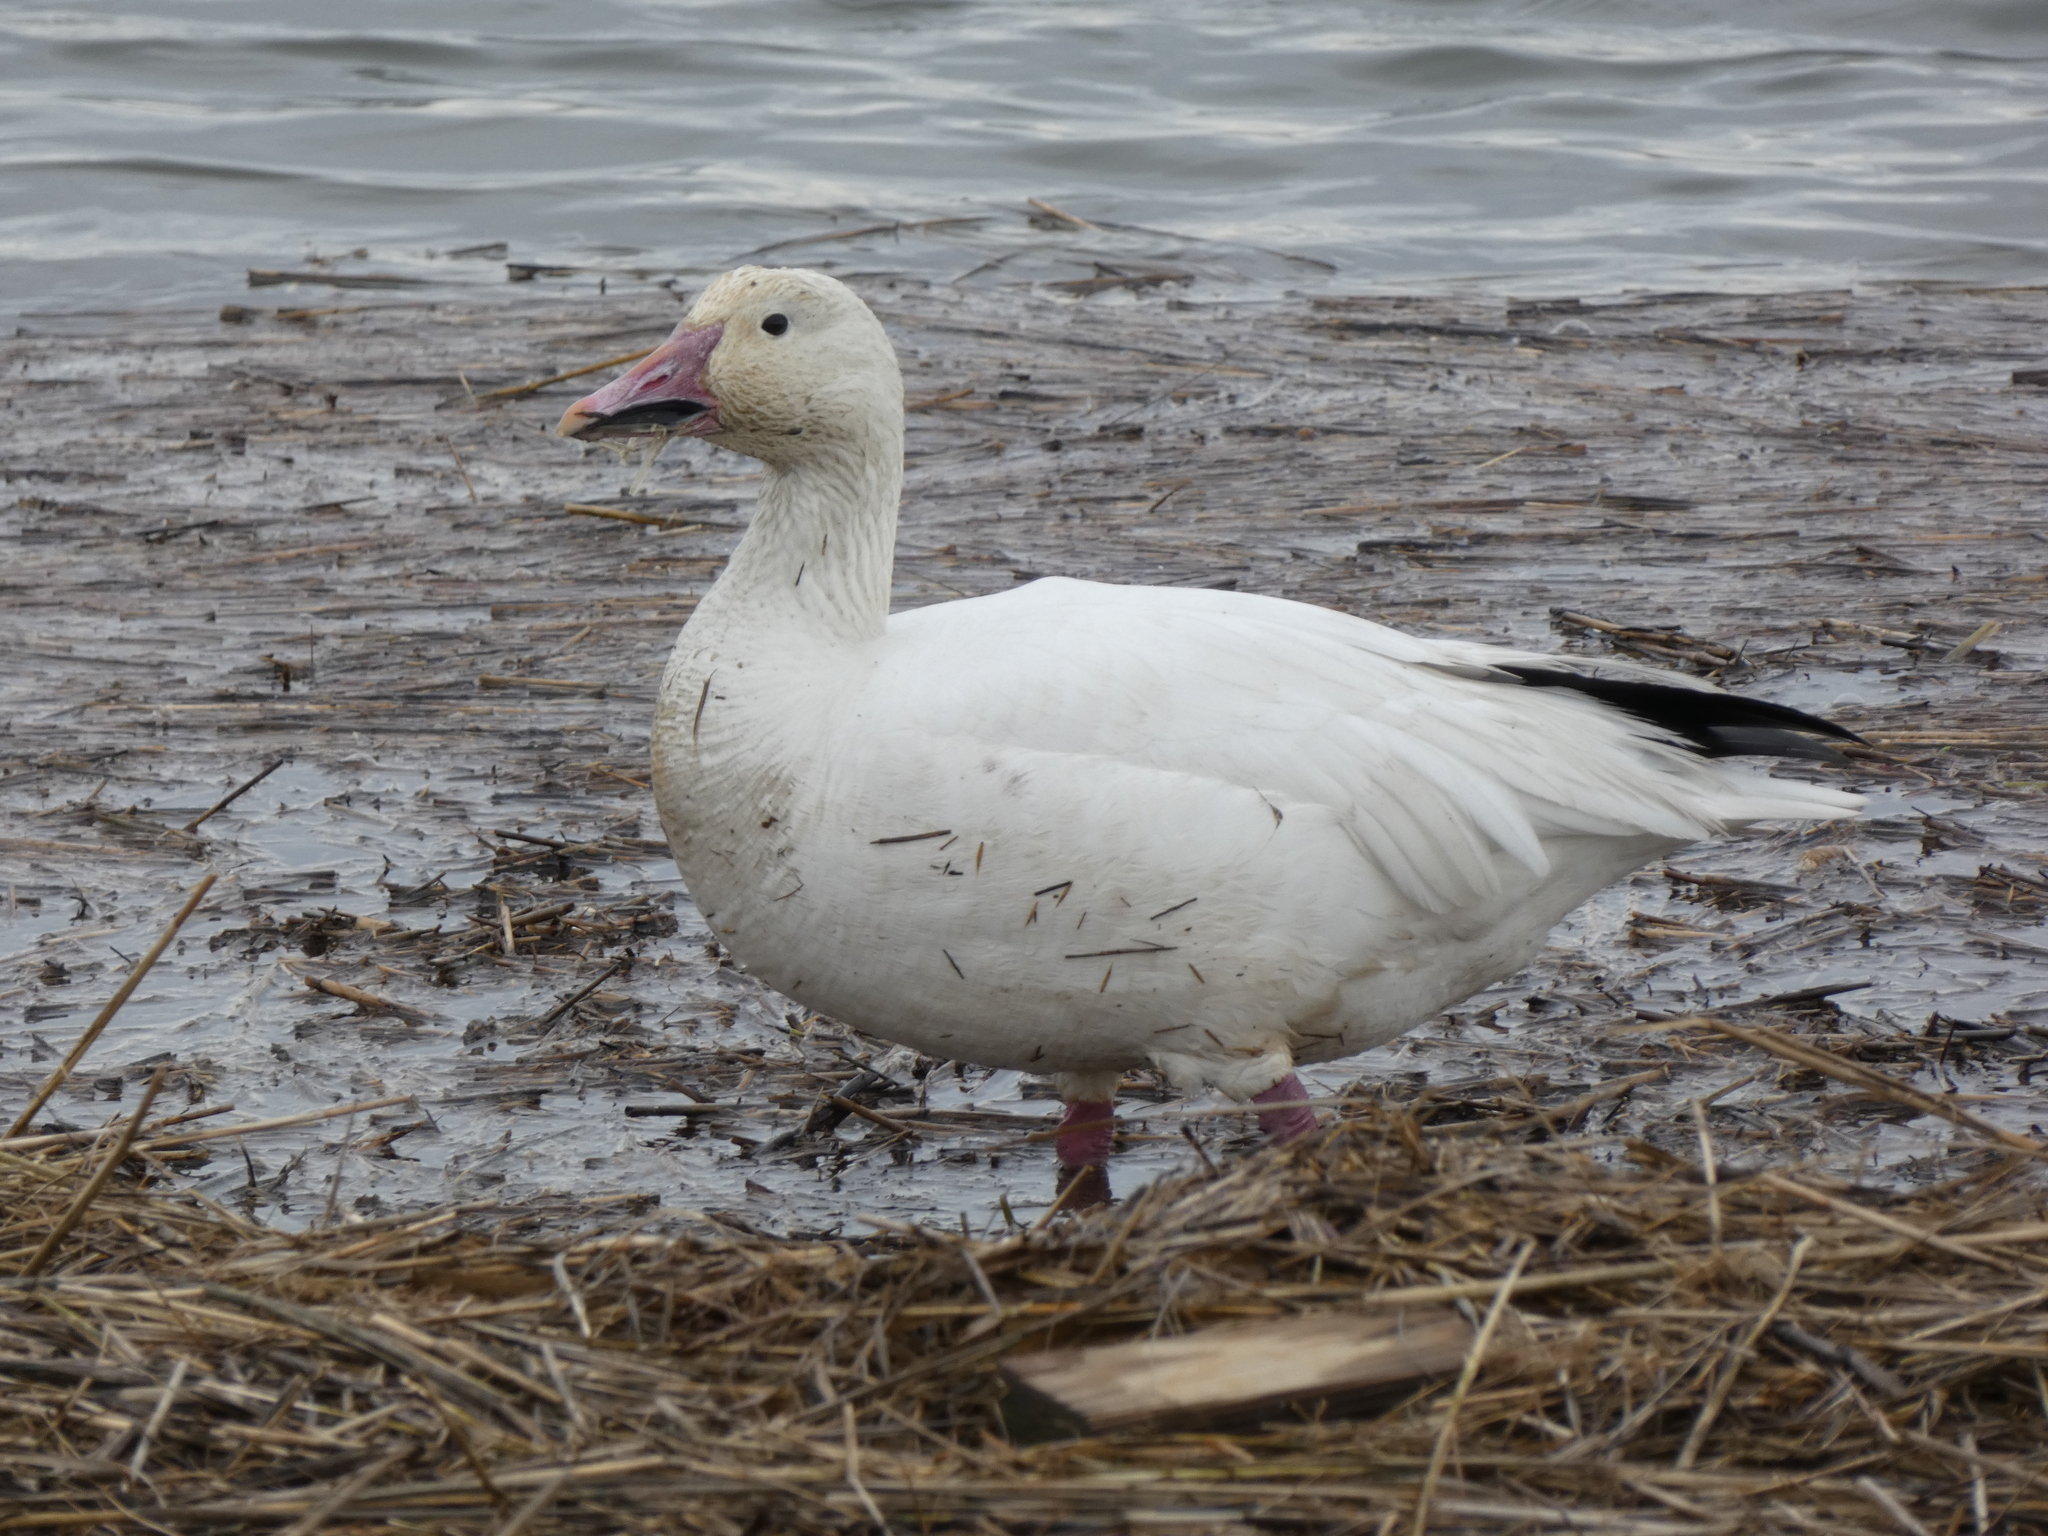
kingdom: Animalia
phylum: Chordata
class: Aves
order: Anseriformes
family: Anatidae
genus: Anser
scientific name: Anser caerulescens
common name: Snow goose
